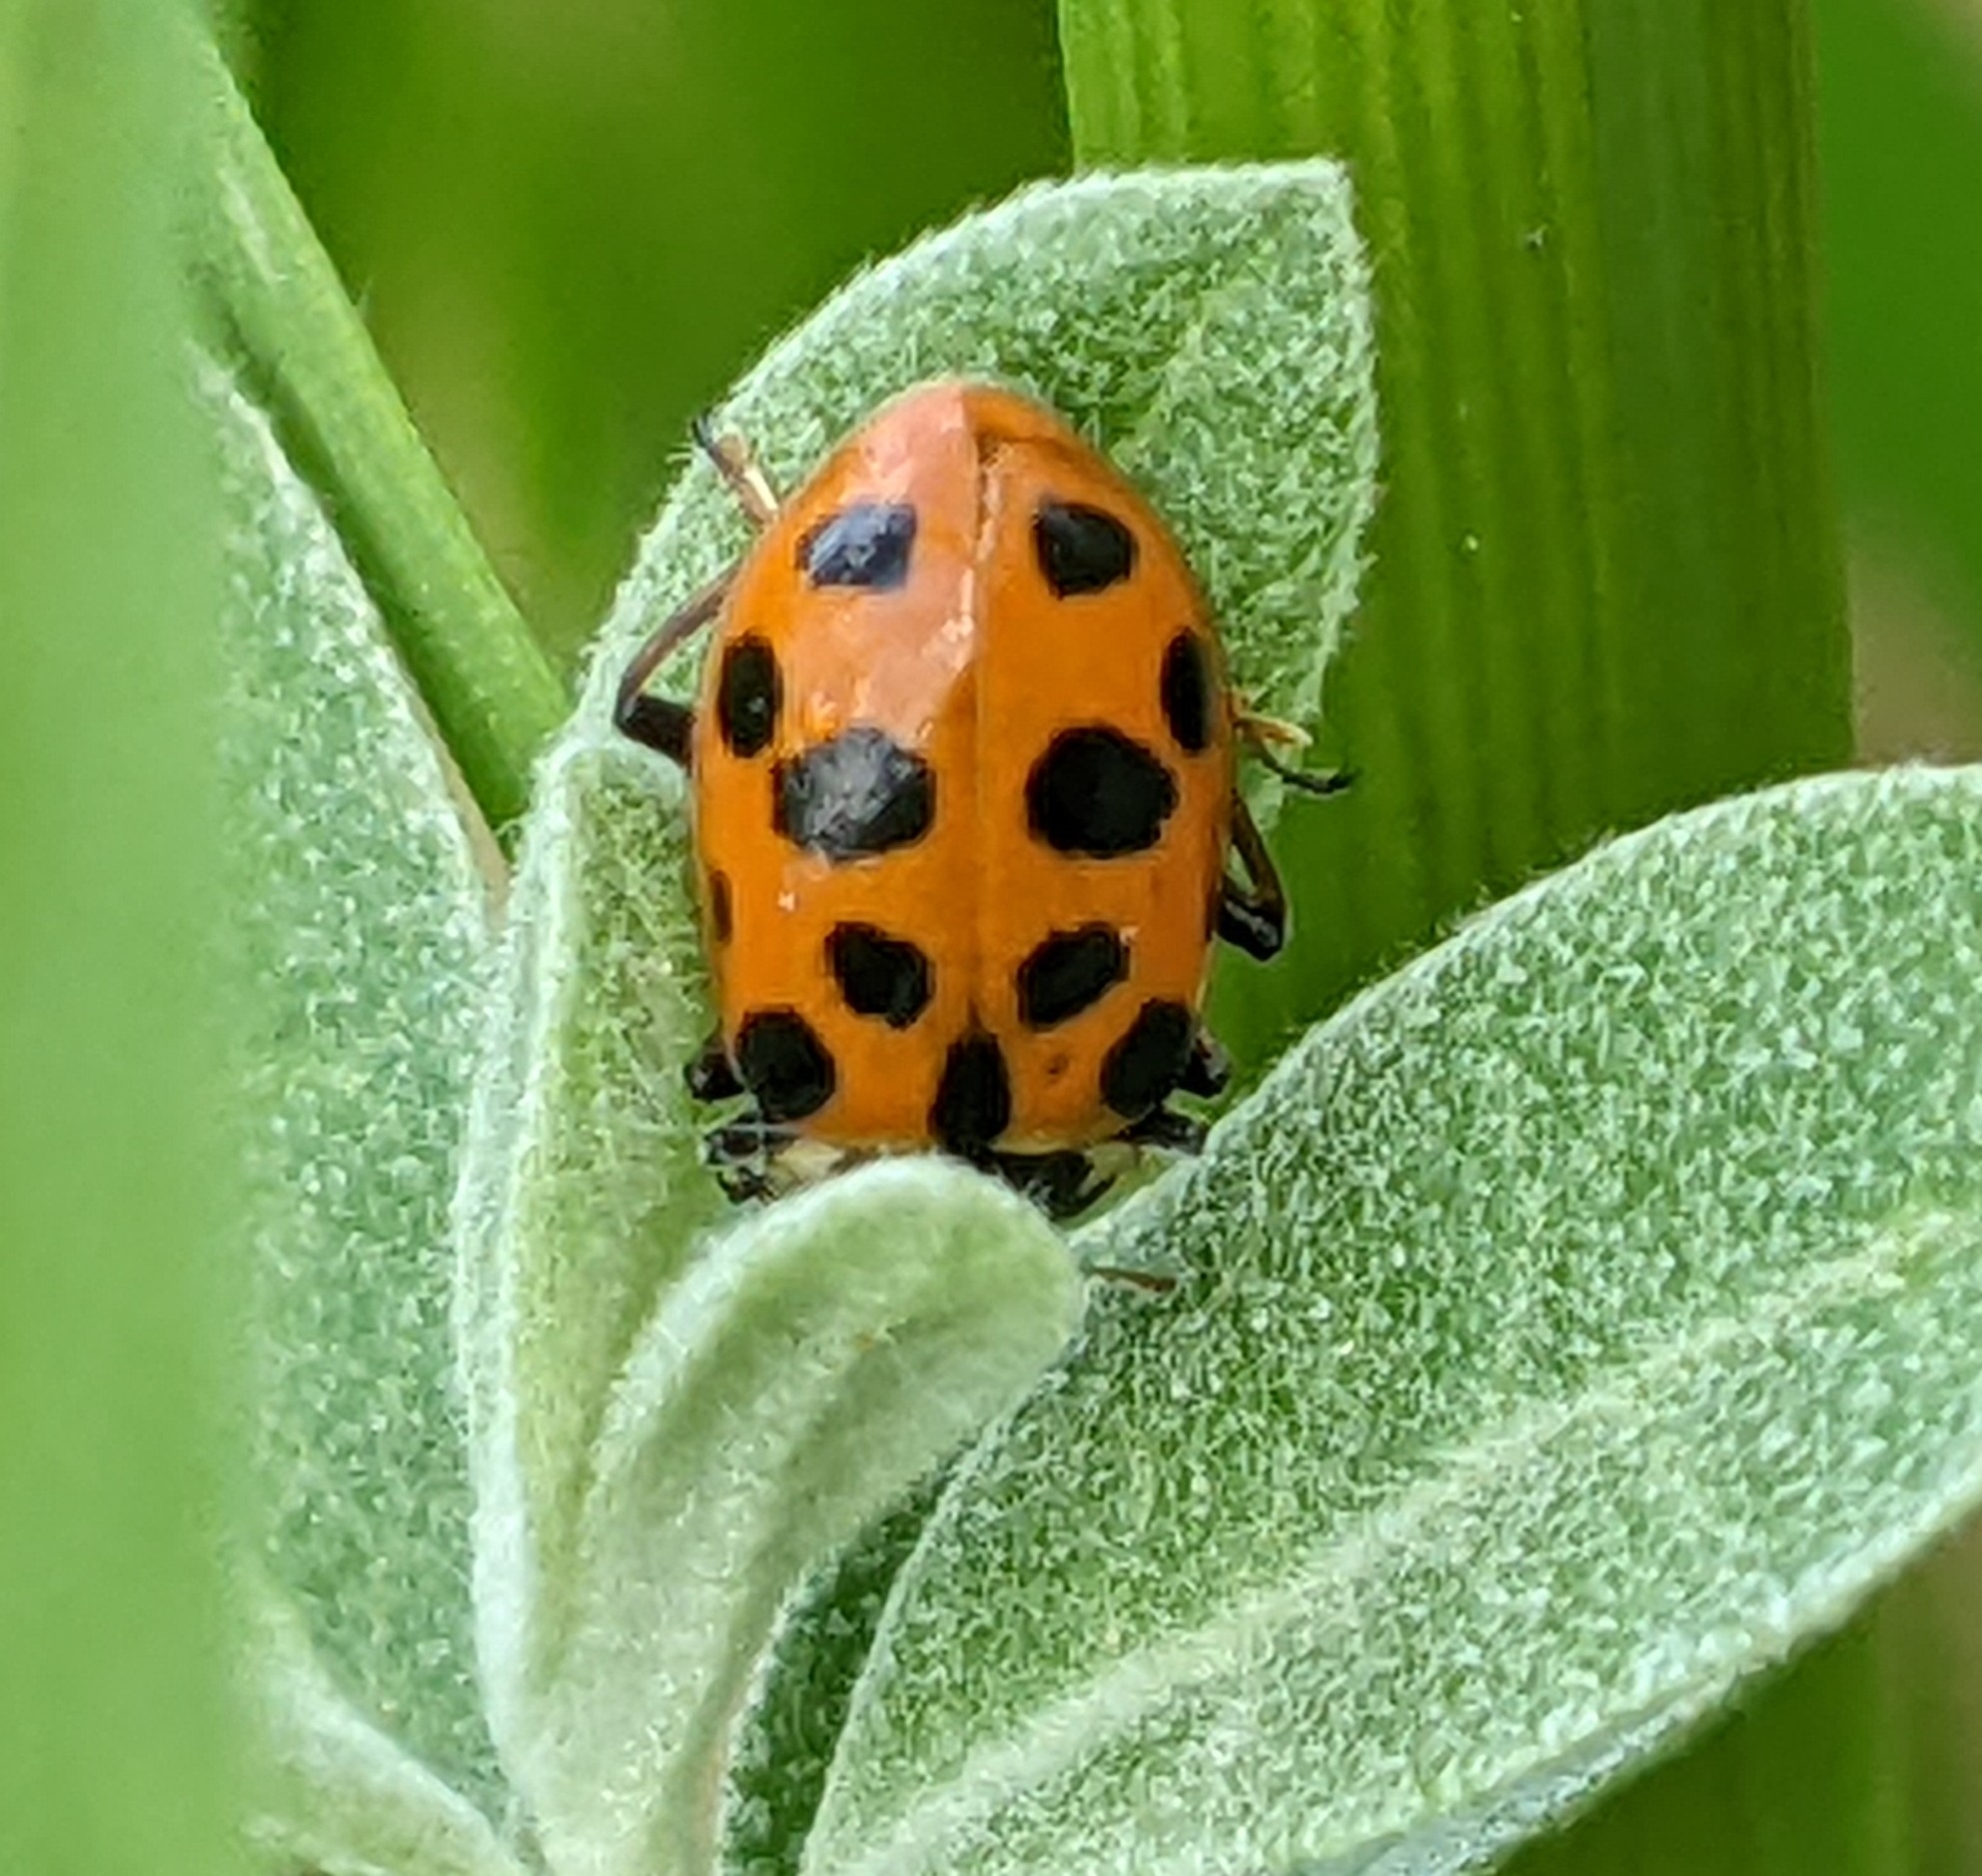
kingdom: Animalia
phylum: Arthropoda
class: Insecta
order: Coleoptera
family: Coccinellidae
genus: Hippodamia
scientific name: Hippodamia tredecimpunctata
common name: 13-spot ladybird
